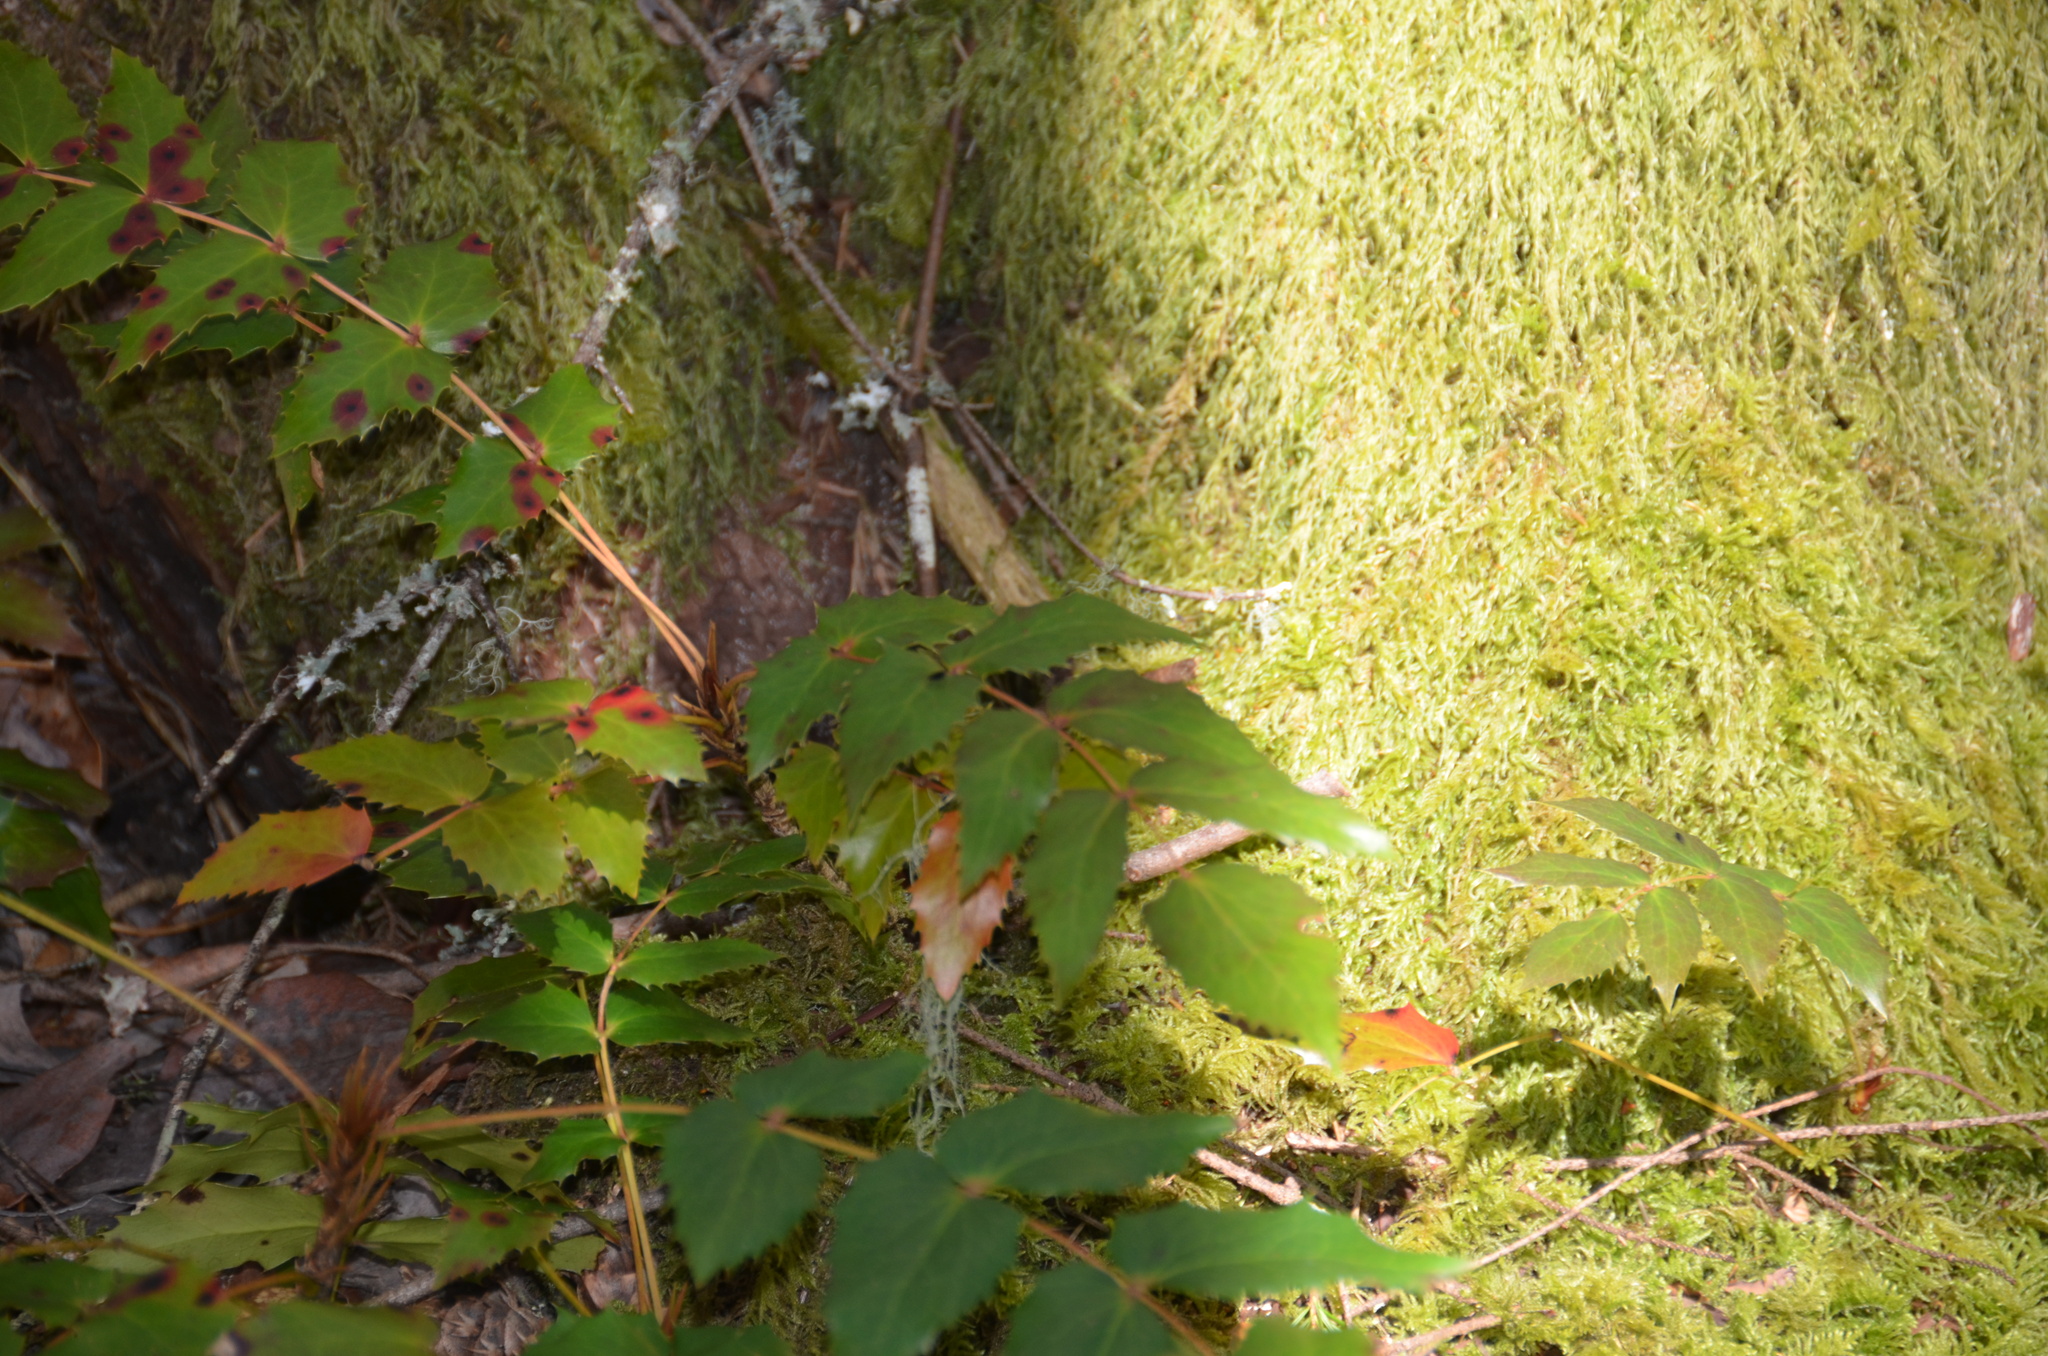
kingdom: Plantae
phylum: Tracheophyta
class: Magnoliopsida
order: Ranunculales
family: Berberidaceae
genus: Mahonia
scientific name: Mahonia nervosa
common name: Cascade oregon-grape
